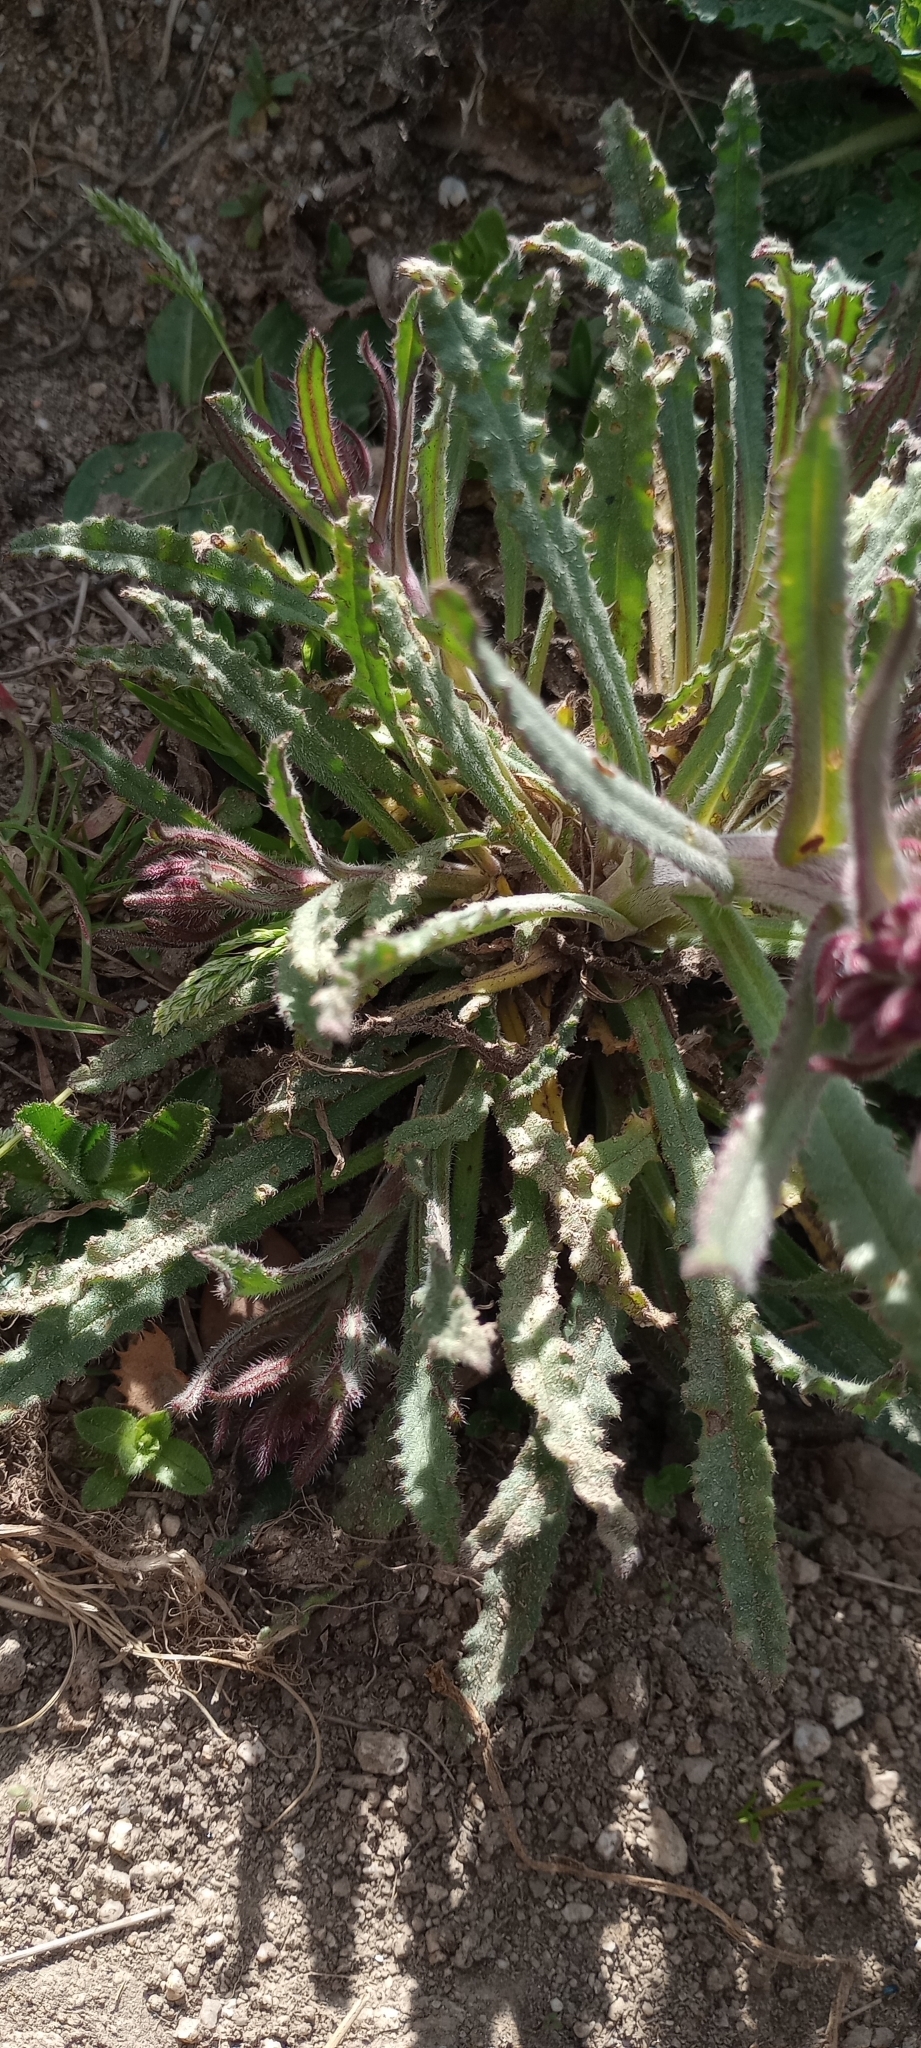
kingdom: Plantae
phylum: Tracheophyta
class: Magnoliopsida
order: Boraginales
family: Boraginaceae
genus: Anchusa
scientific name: Anchusa undulata
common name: Undulate alkanet
